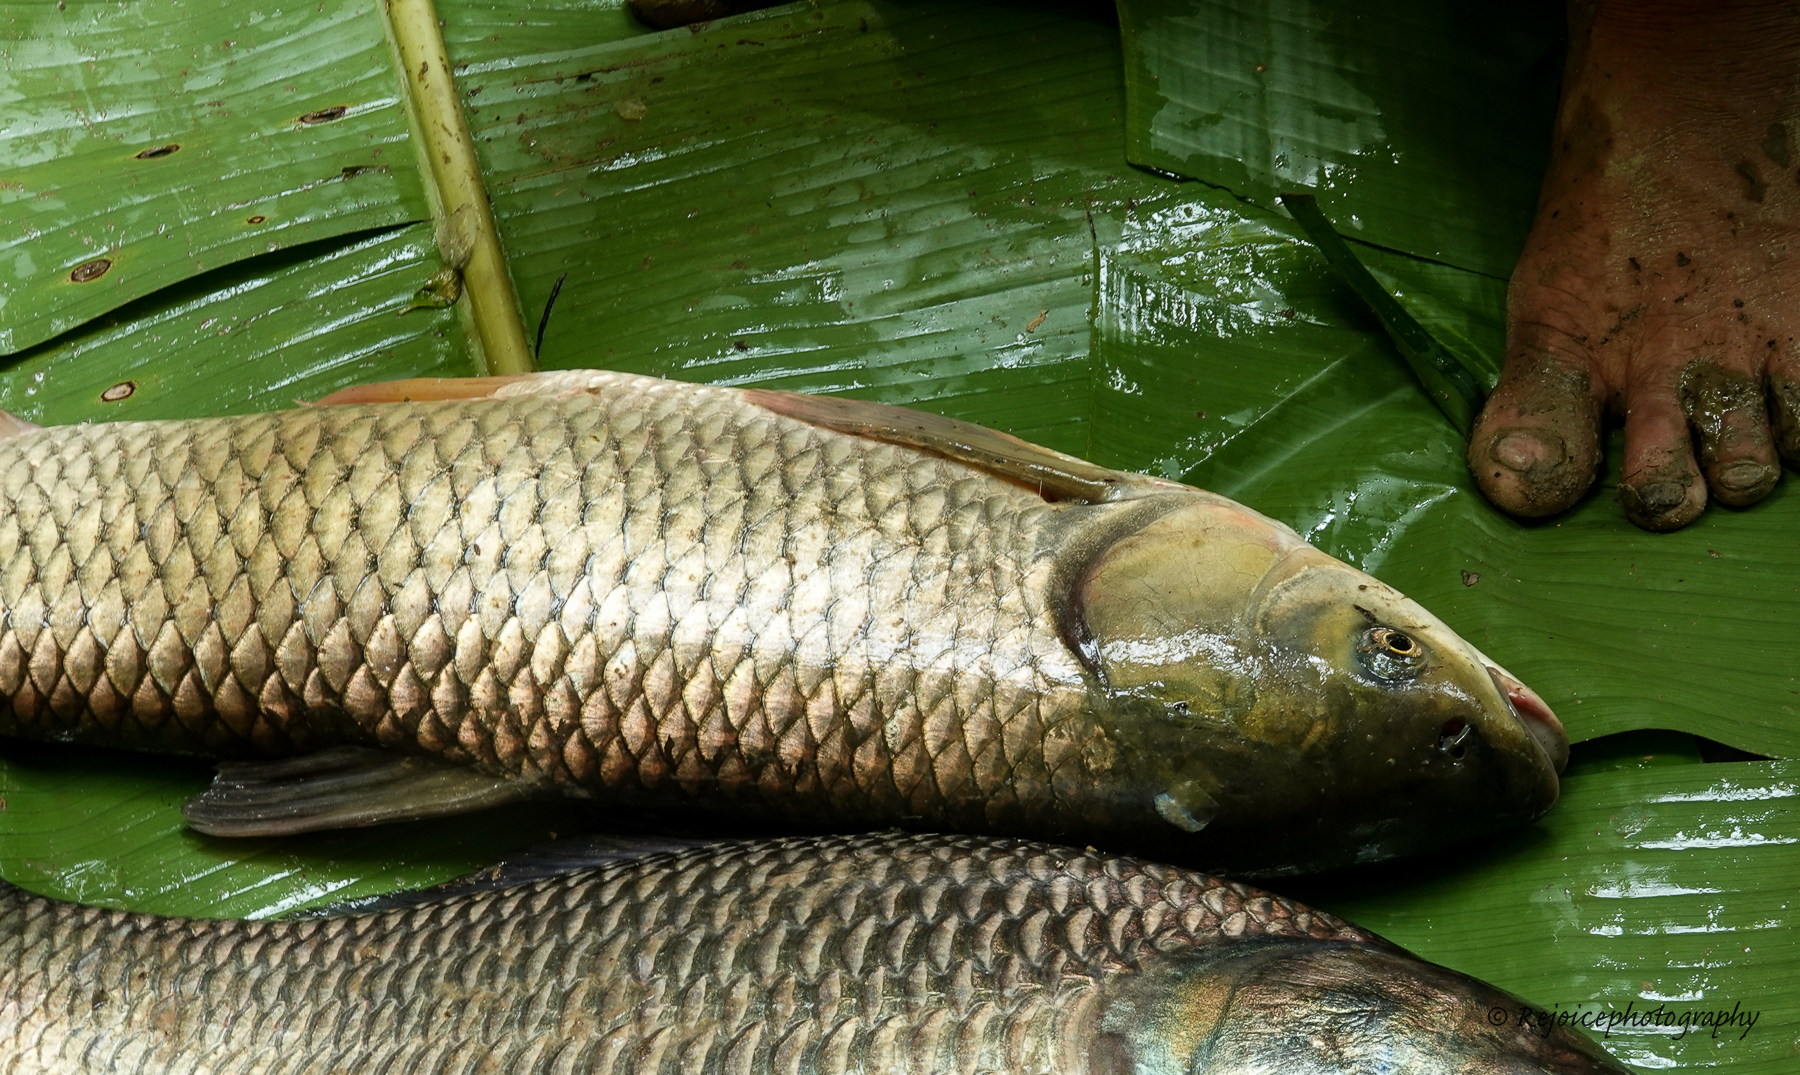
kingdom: Animalia
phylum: Chordata
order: Cypriniformes
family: Cyprinidae
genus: Ctenopharyngodon
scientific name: Ctenopharyngodon idella
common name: Grass carp
